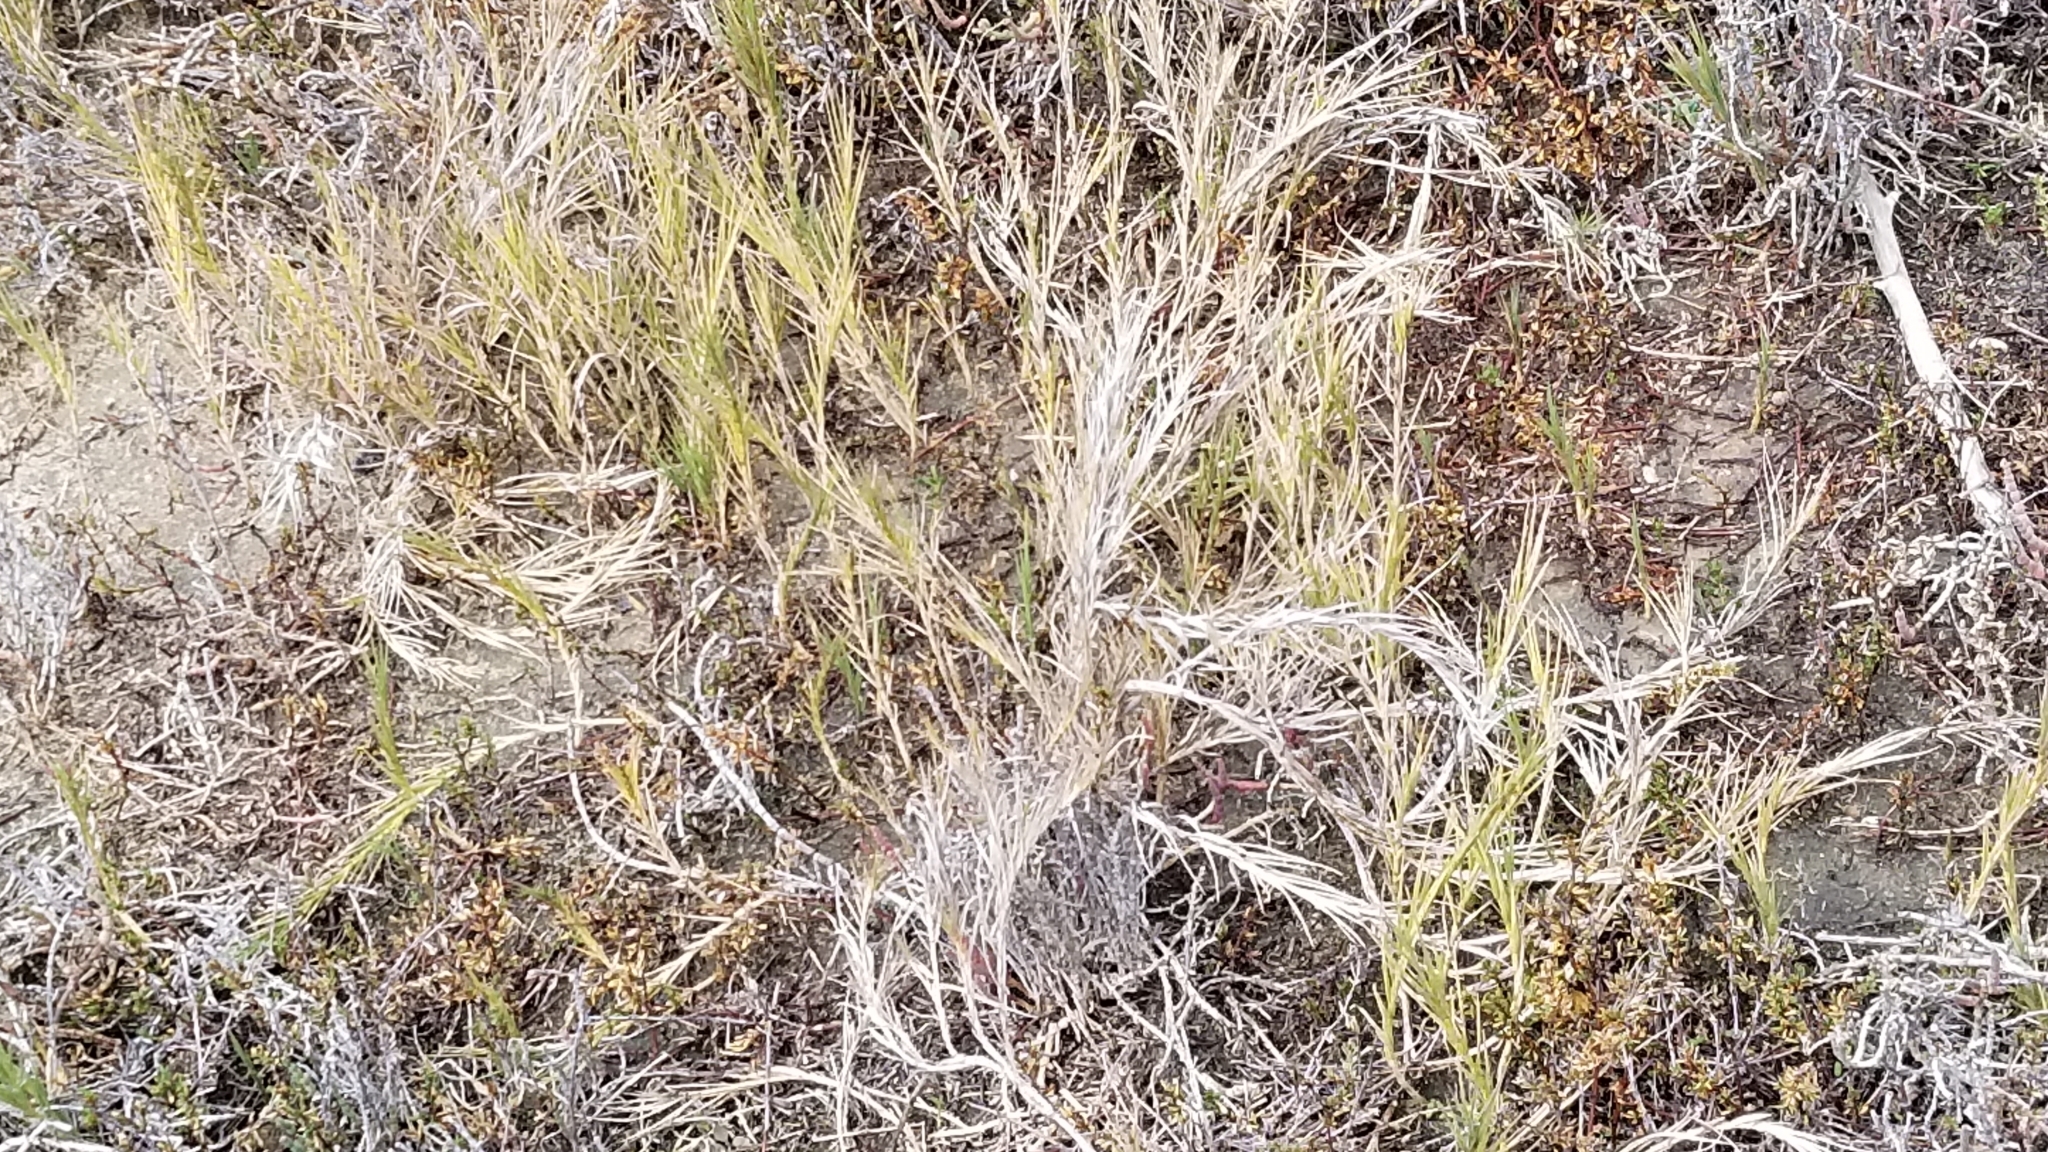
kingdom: Plantae
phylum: Tracheophyta
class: Liliopsida
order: Poales
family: Poaceae
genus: Distichlis
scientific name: Distichlis spicata
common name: Saltgrass
